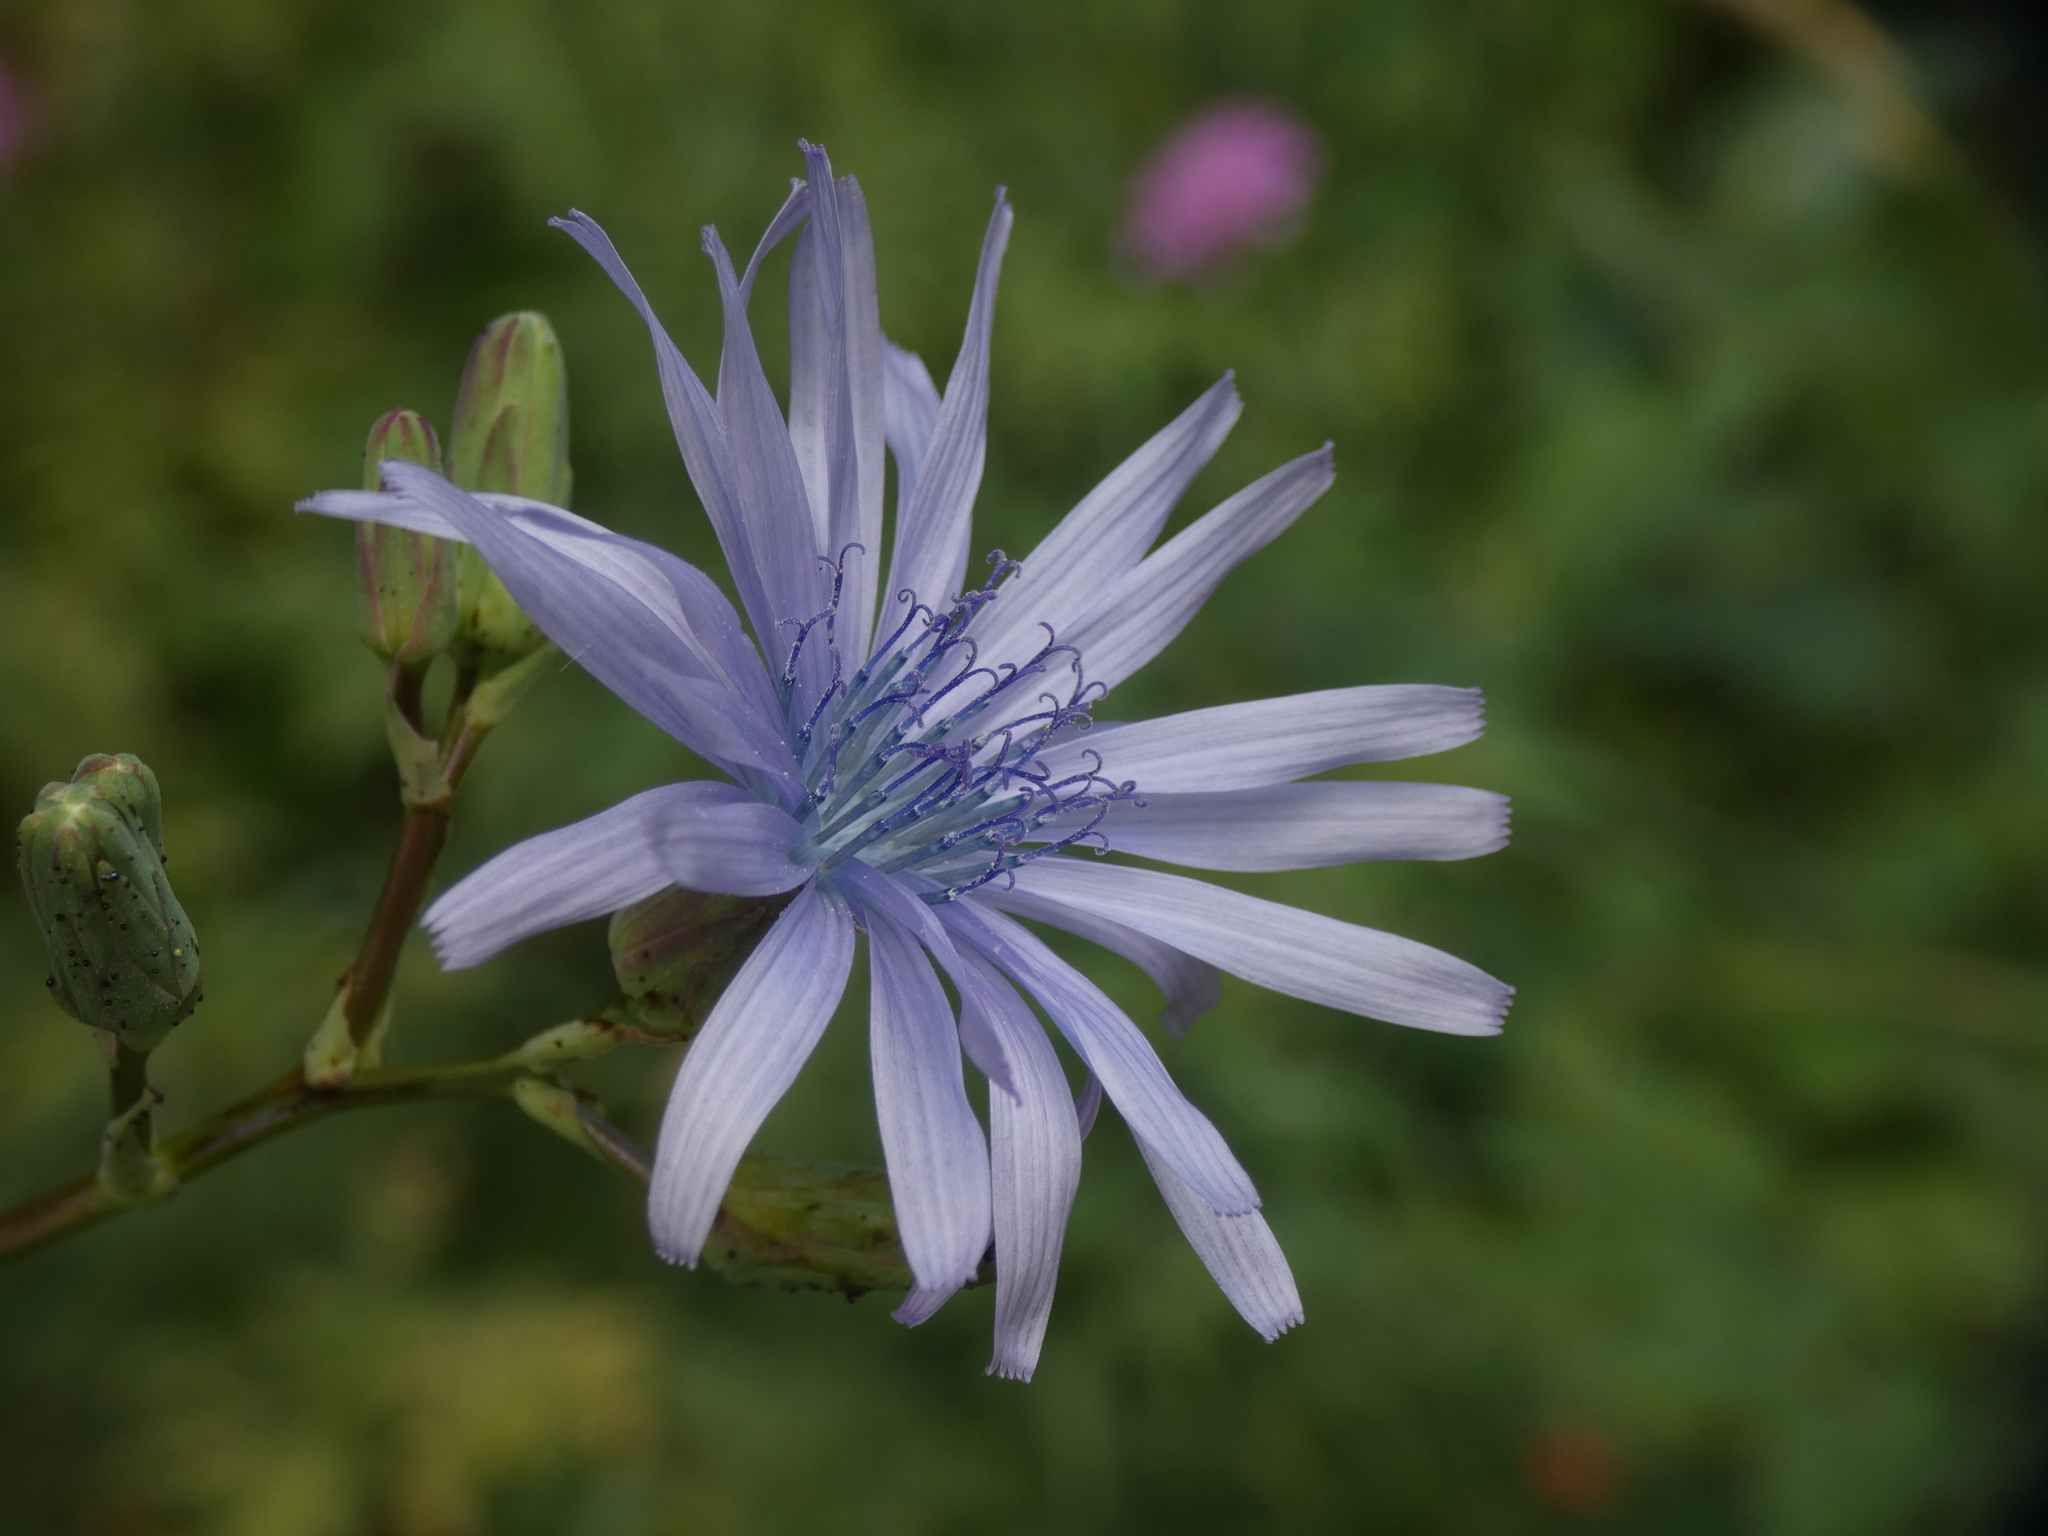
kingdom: Plantae
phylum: Tracheophyta
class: Magnoliopsida
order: Asterales
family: Asteraceae
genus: Lactuca
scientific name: Lactuca plumieri
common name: Hairless blue-sow-thistle
